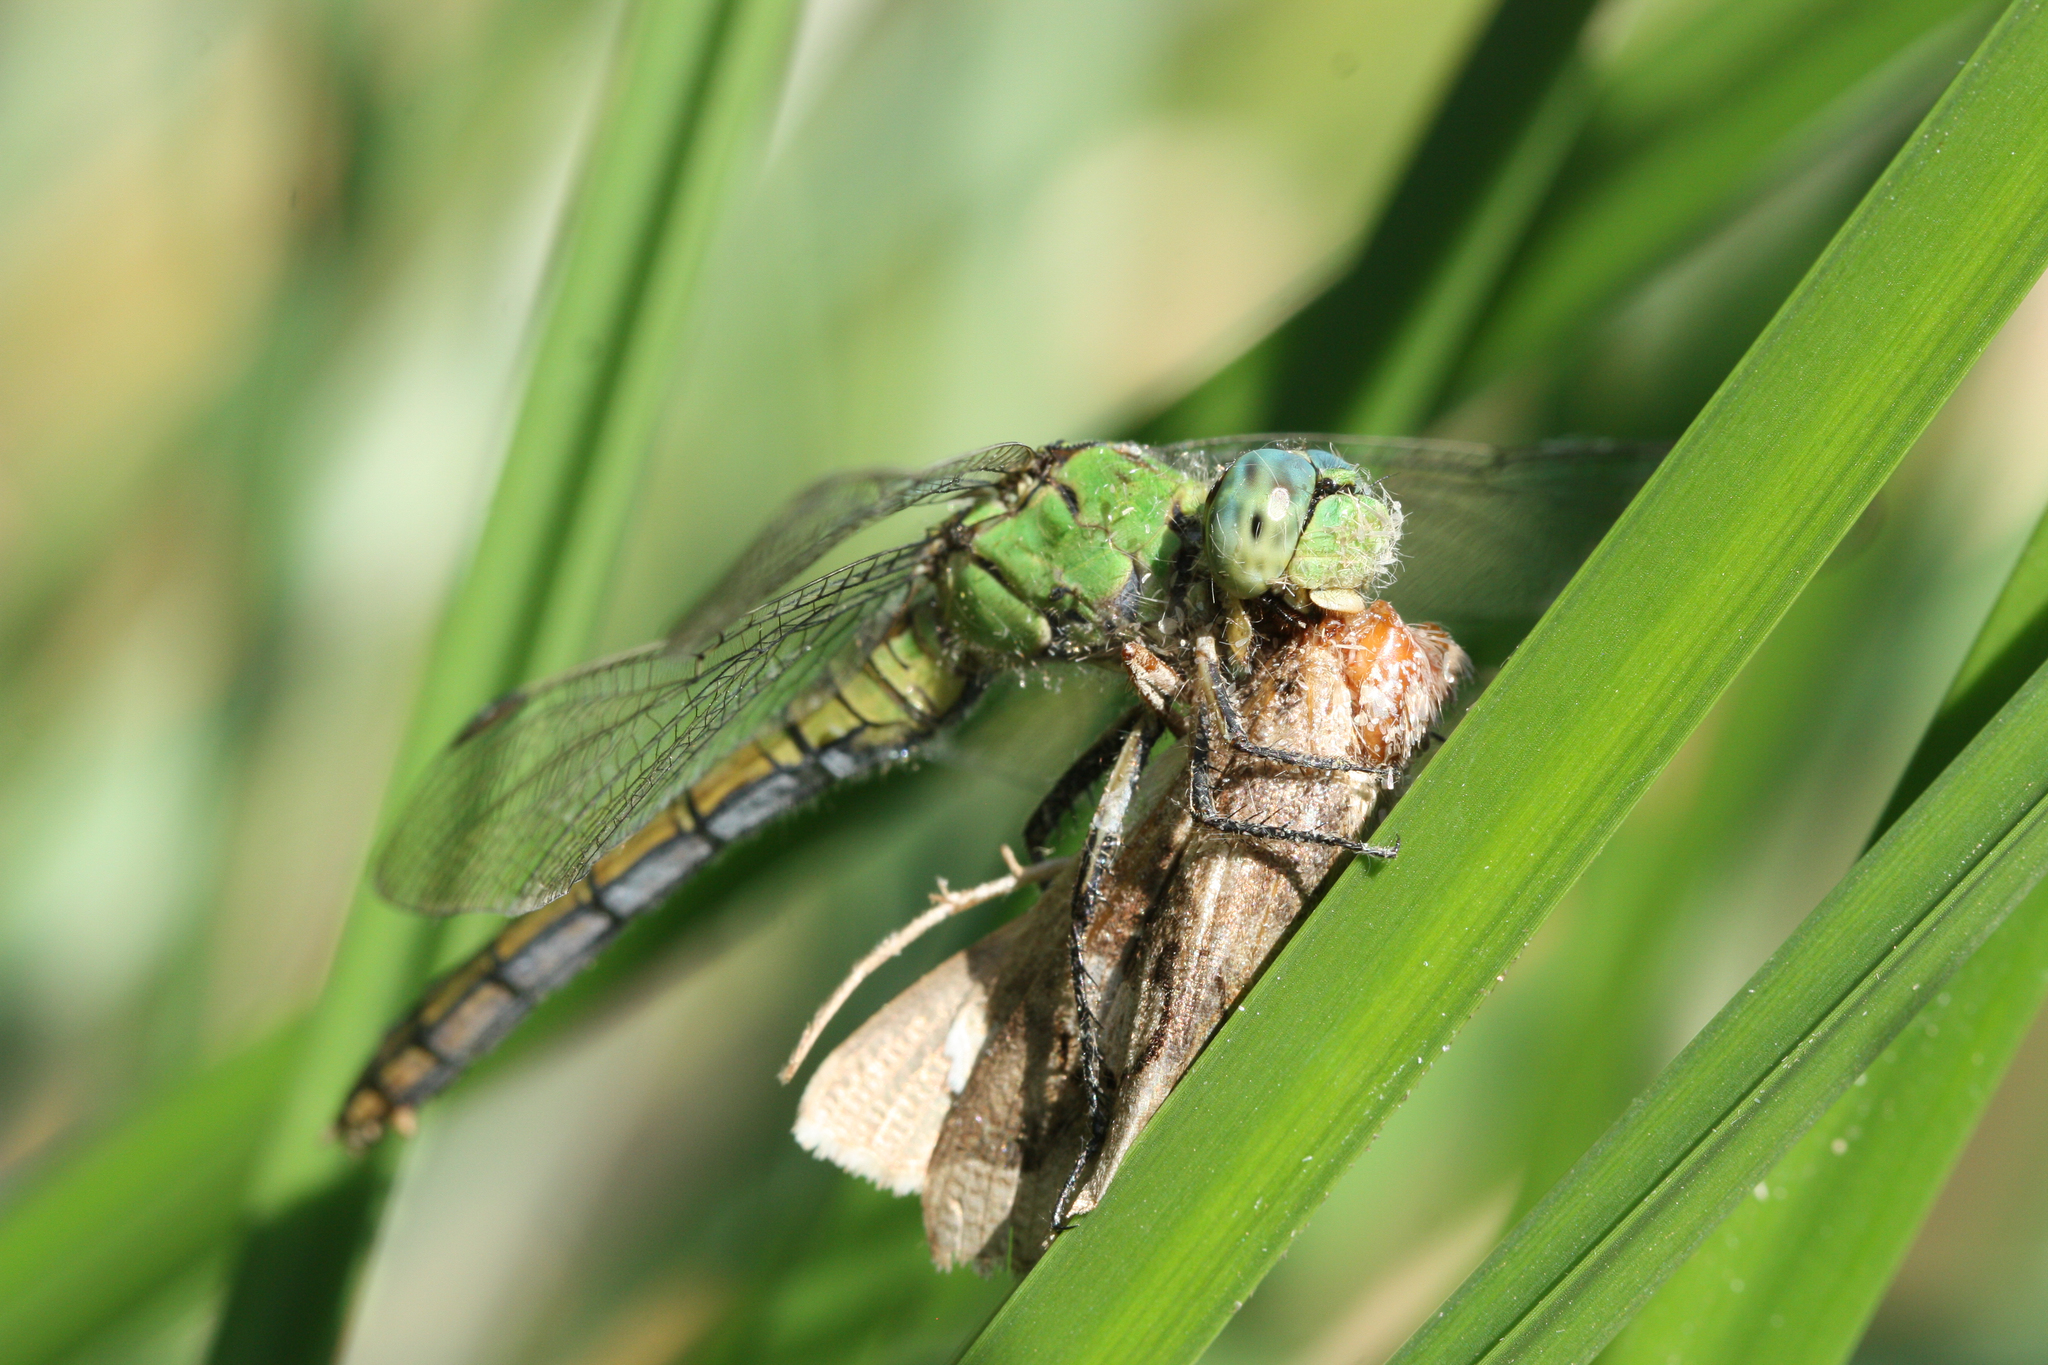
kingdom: Animalia
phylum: Arthropoda
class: Insecta
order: Odonata
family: Libellulidae
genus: Erythemis
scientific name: Erythemis collocata
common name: Western pondhawk
